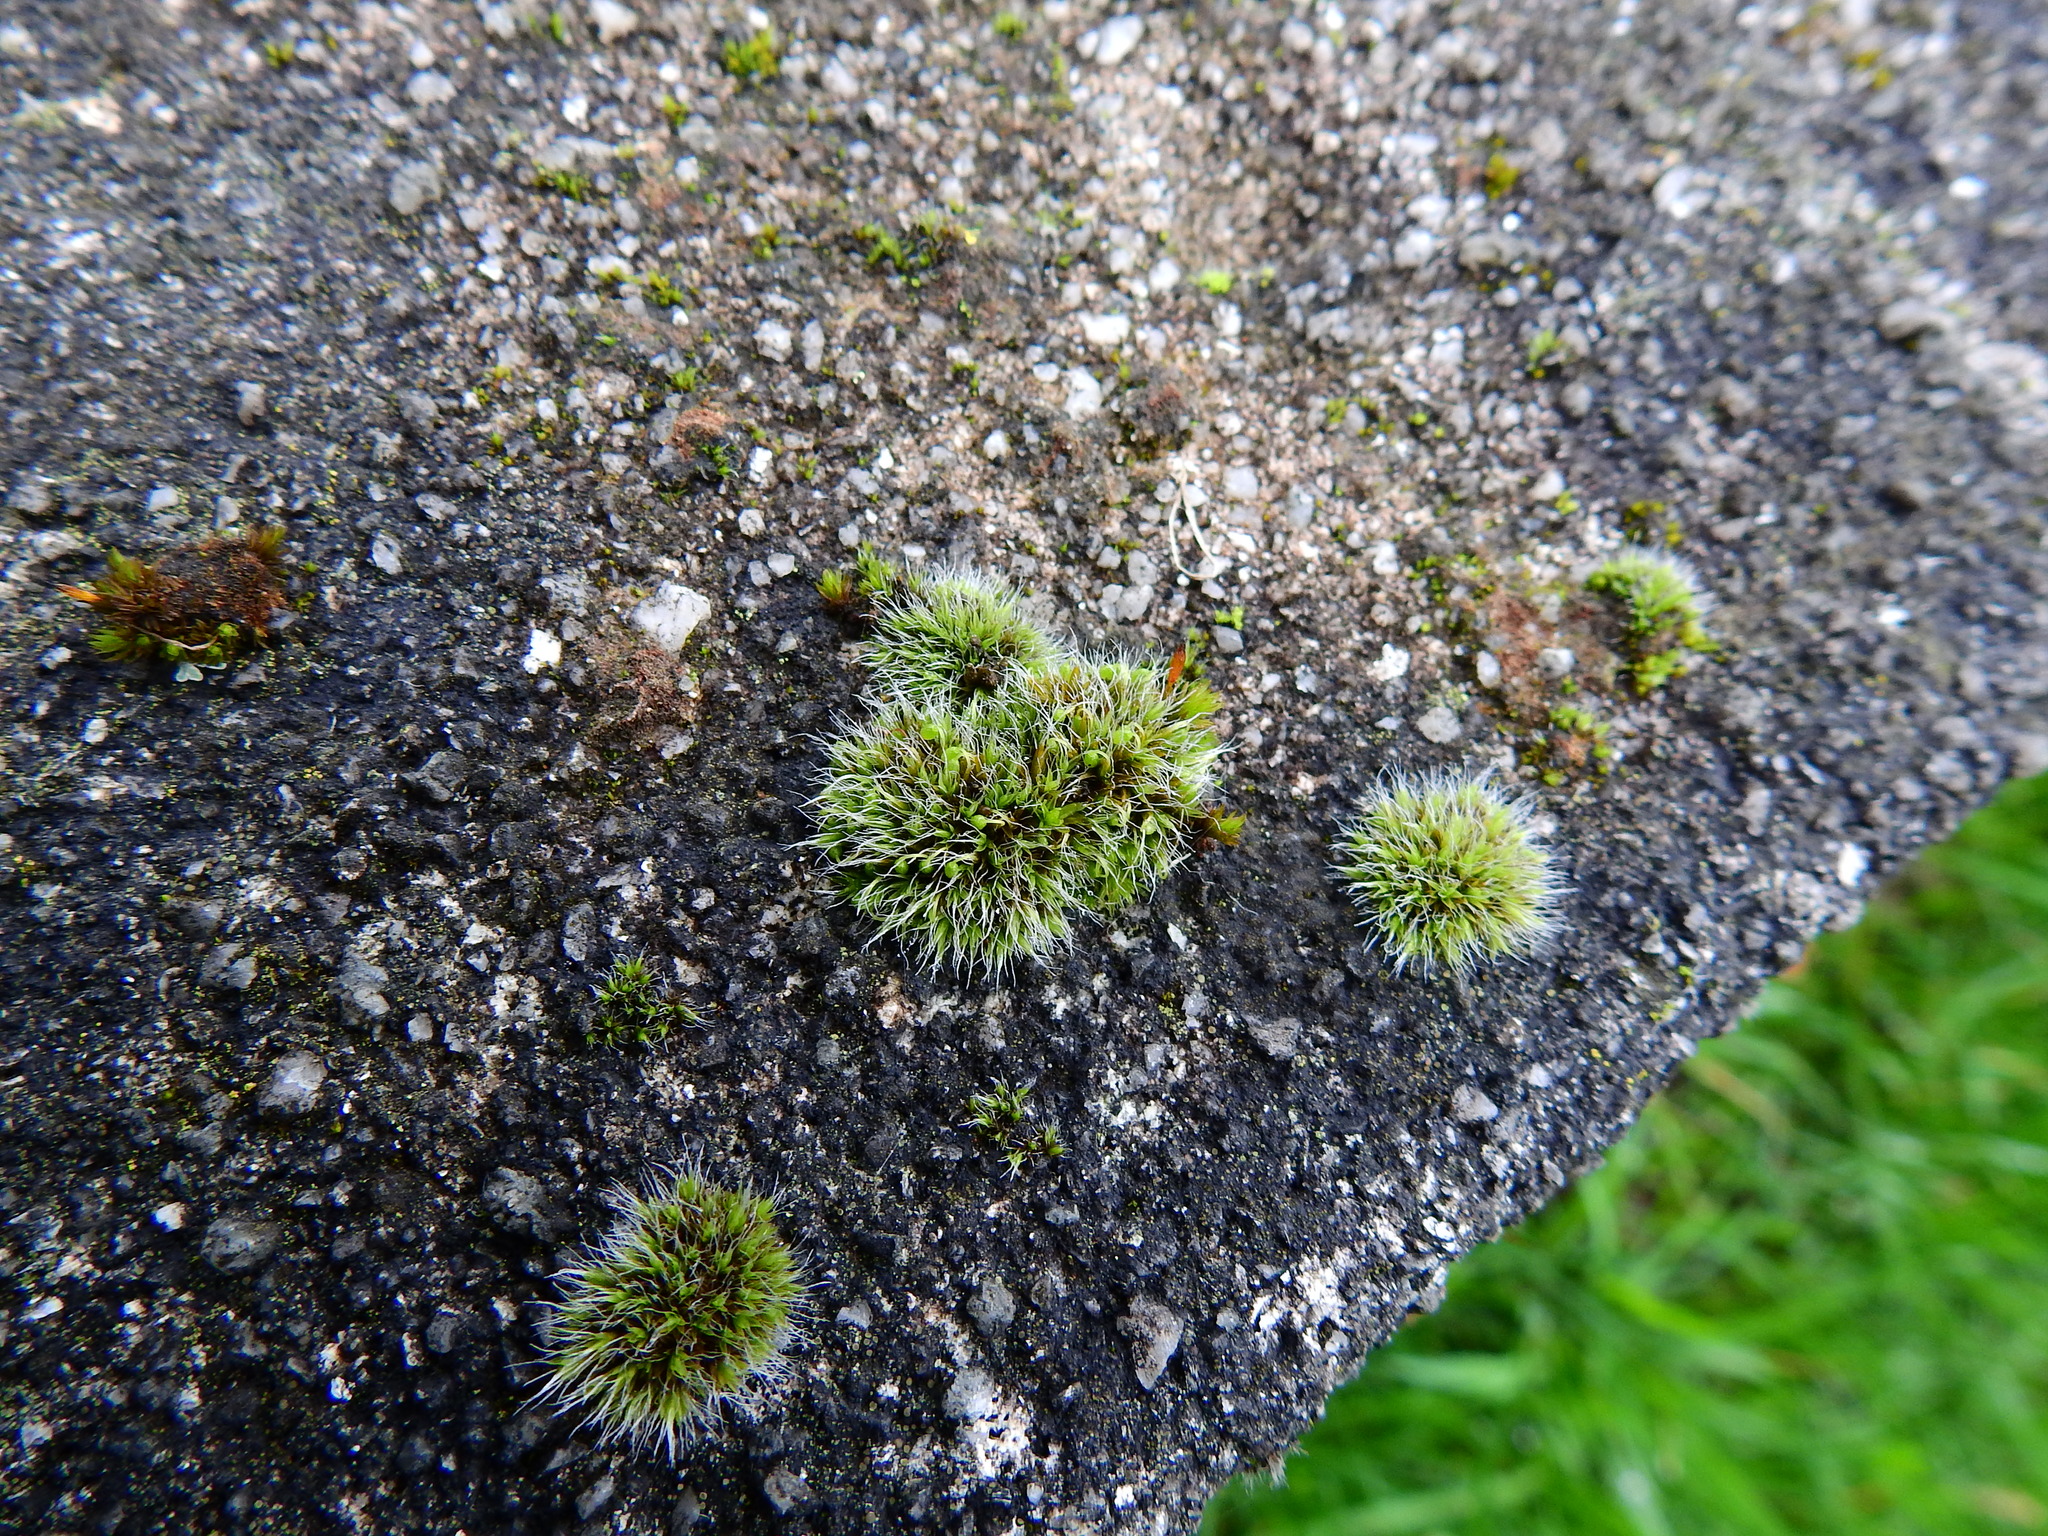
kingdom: Plantae
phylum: Bryophyta
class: Bryopsida
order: Grimmiales
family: Grimmiaceae
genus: Grimmia
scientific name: Grimmia pulvinata
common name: Grey-cushioned grimmia
